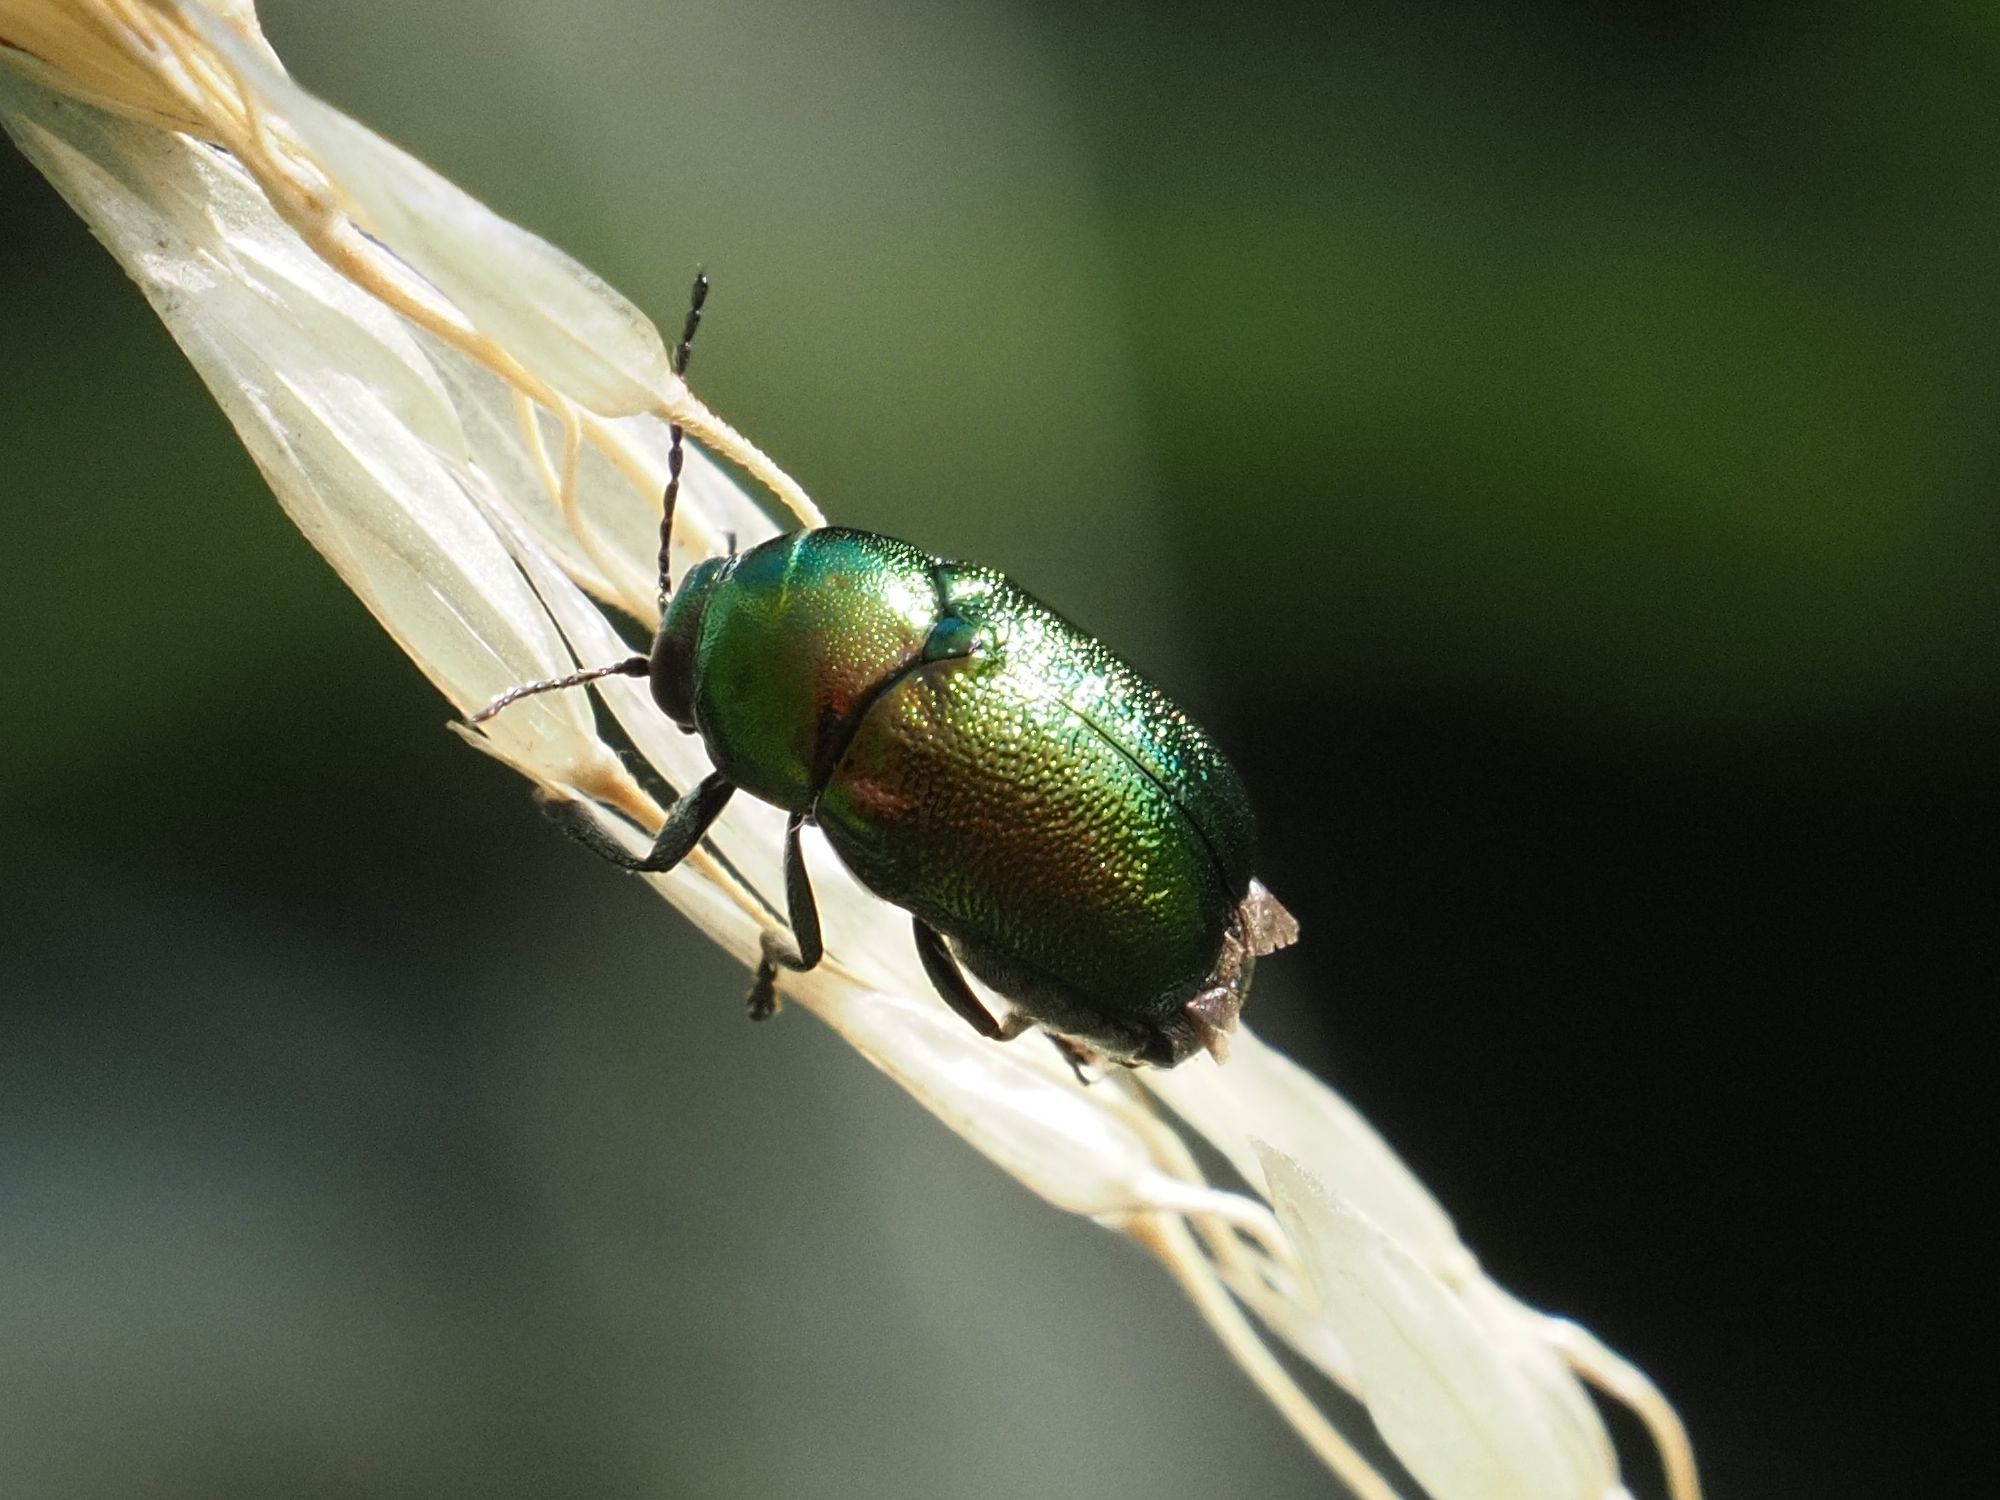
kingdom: Animalia
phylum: Arthropoda
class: Insecta
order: Coleoptera
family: Chrysomelidae
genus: Cryptocephalus
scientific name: Cryptocephalus
